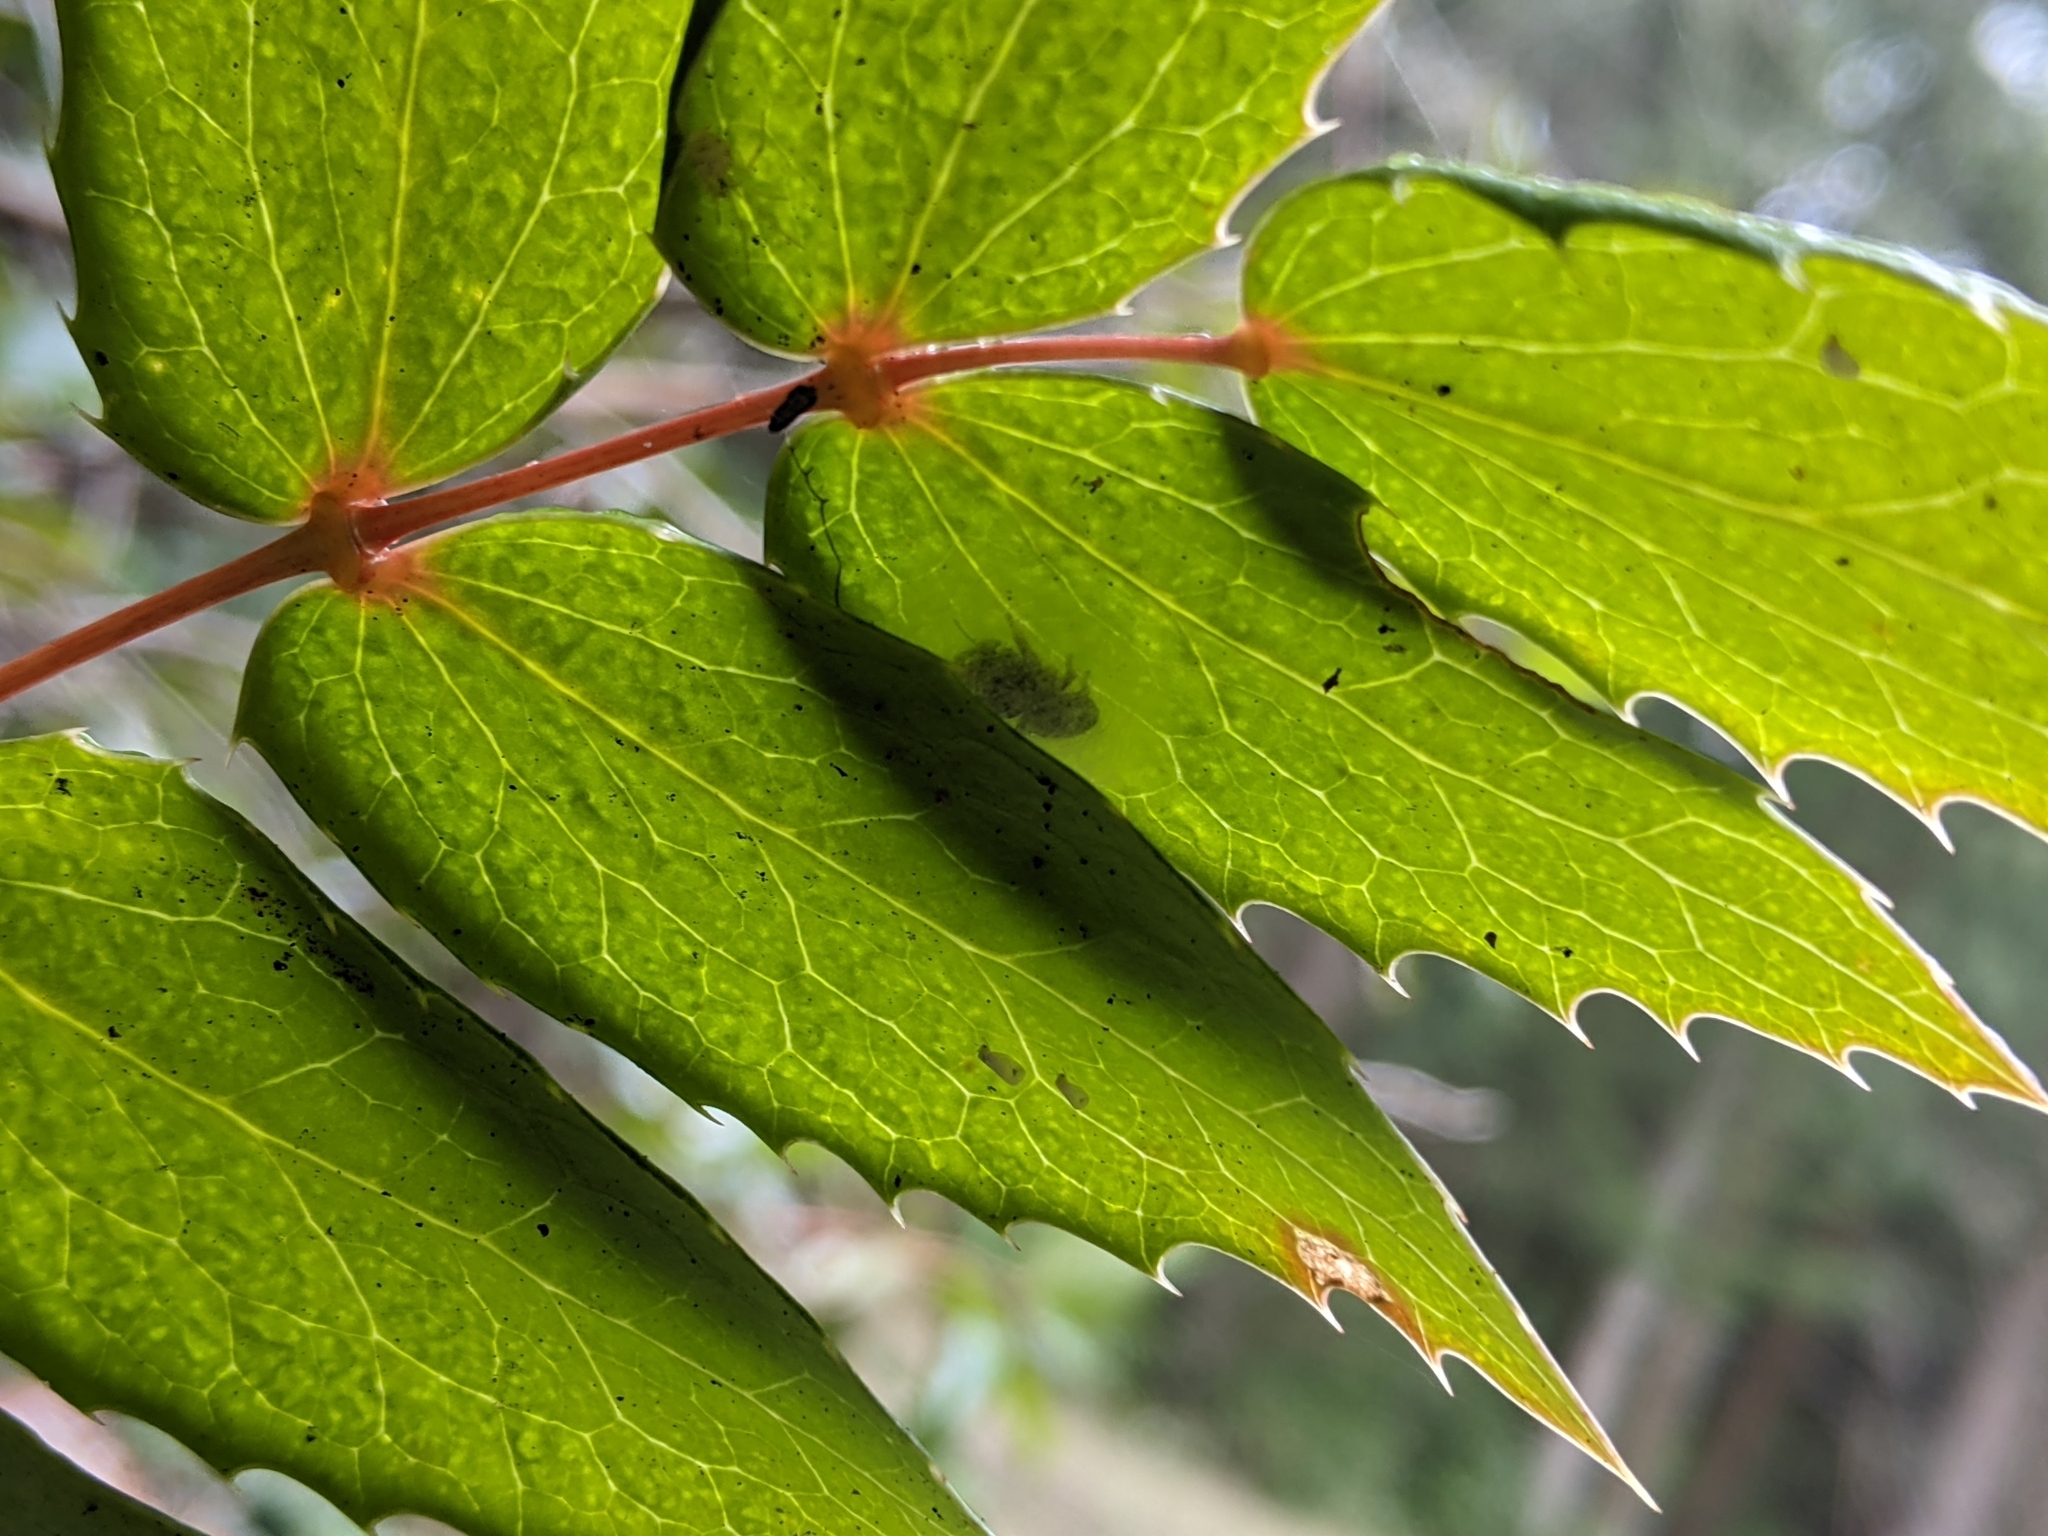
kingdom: Plantae
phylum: Tracheophyta
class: Magnoliopsida
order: Ranunculales
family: Berberidaceae
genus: Mahonia
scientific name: Mahonia nervosa
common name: Cascade oregon-grape
